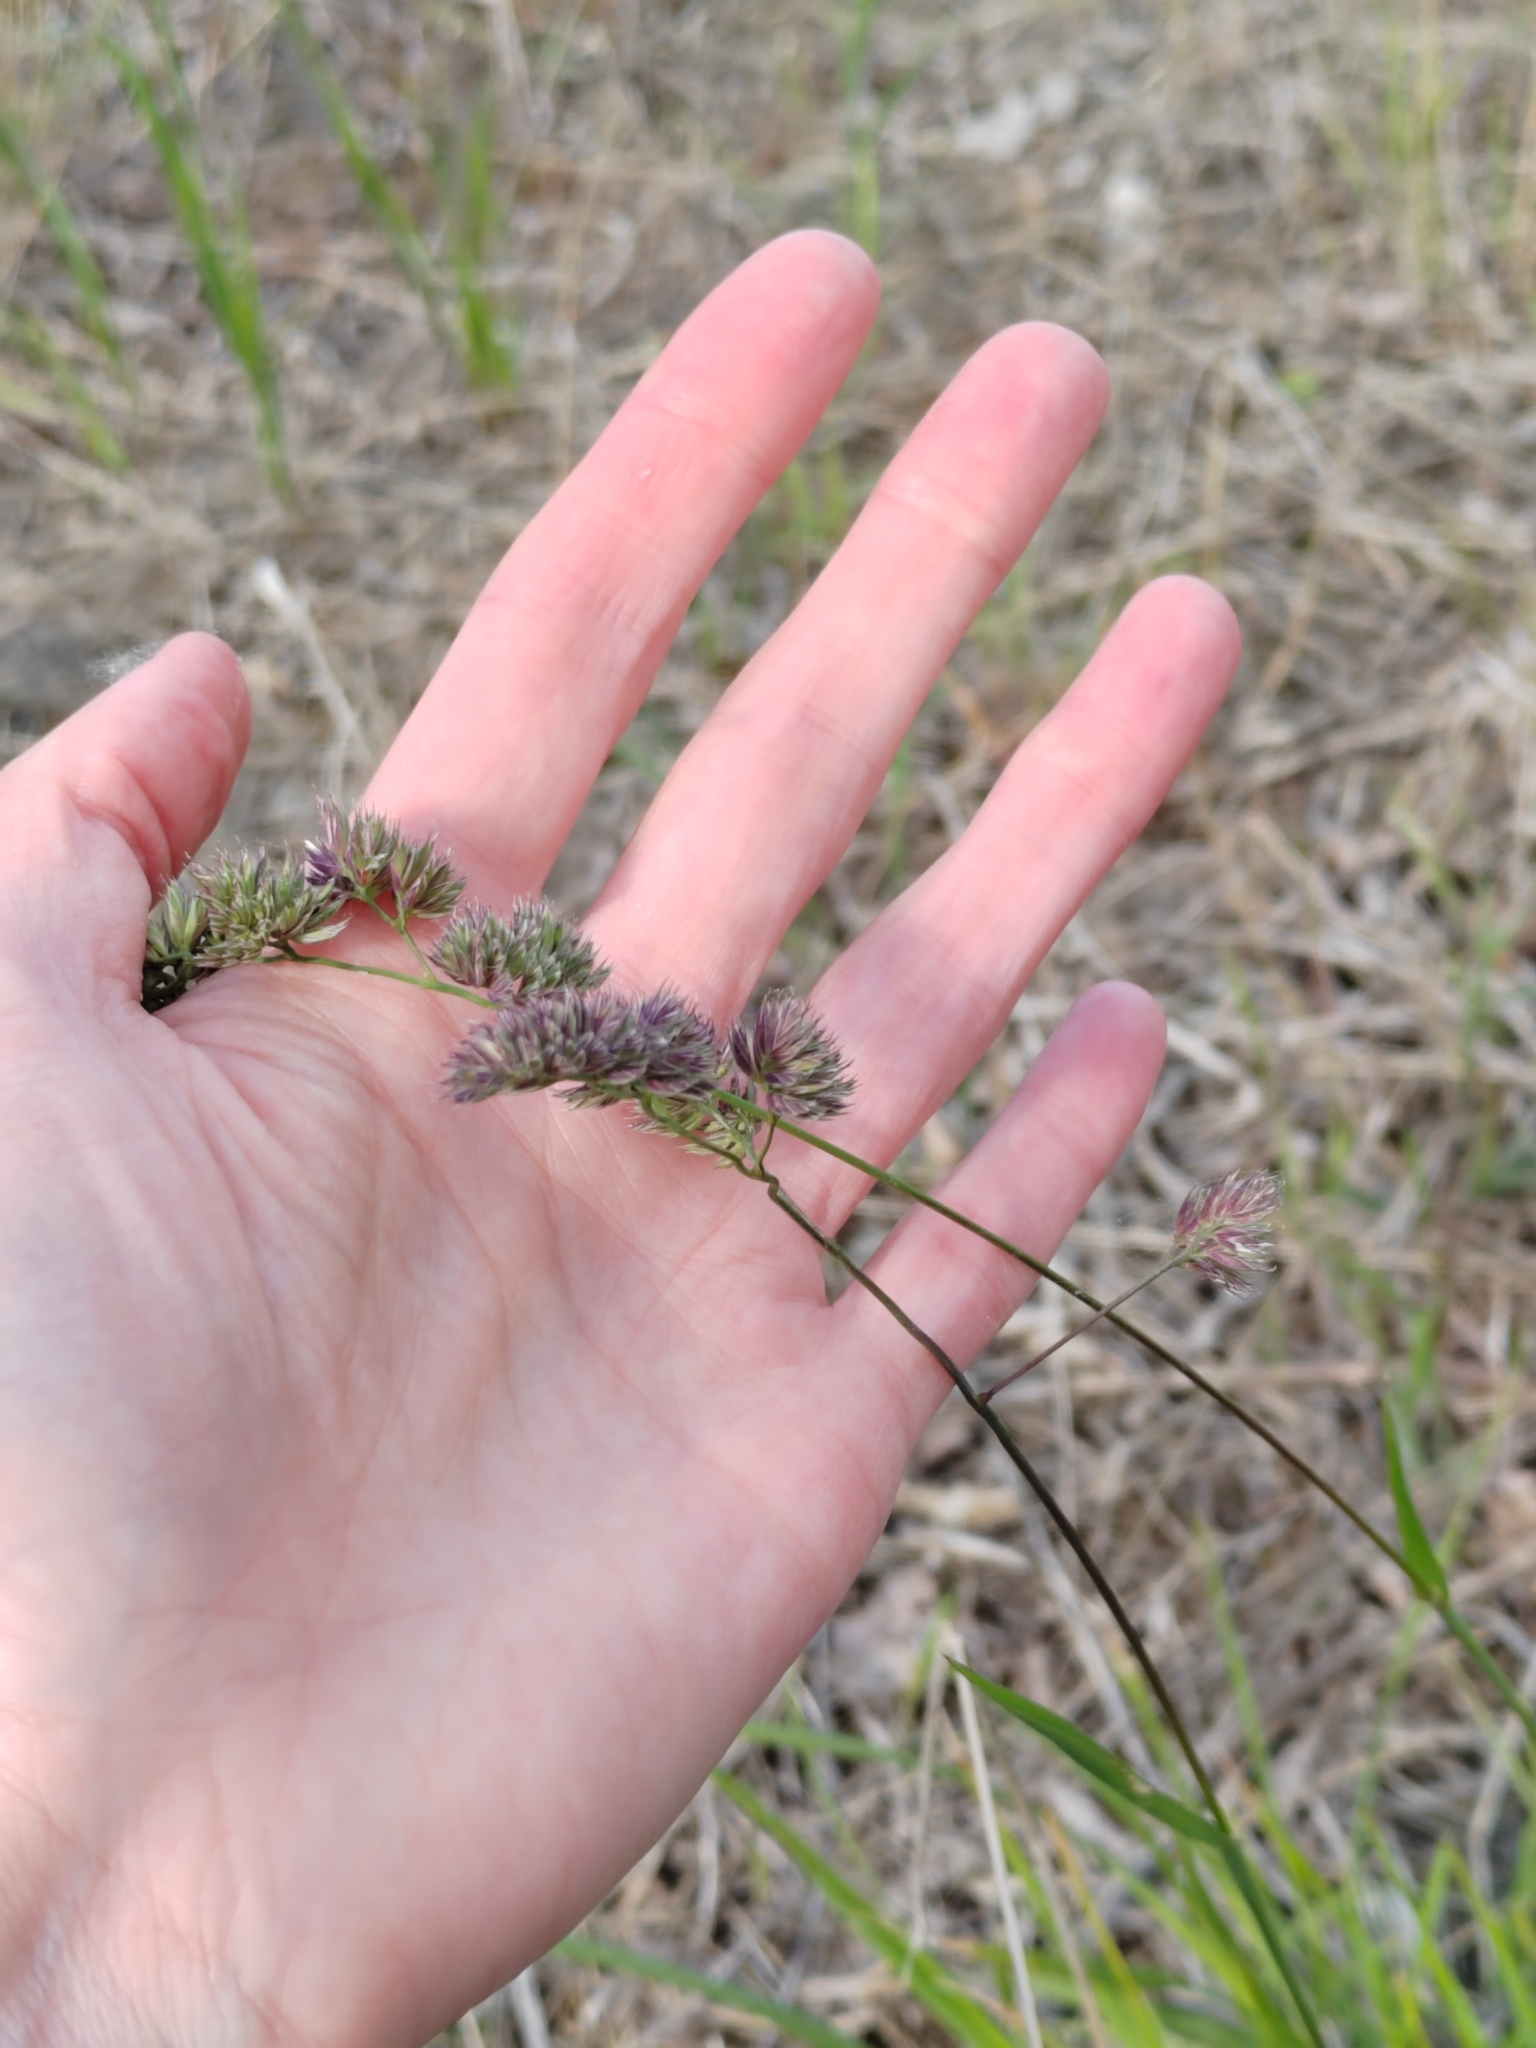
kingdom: Plantae
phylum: Tracheophyta
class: Liliopsida
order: Poales
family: Poaceae
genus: Dactylis
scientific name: Dactylis glomerata
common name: Orchardgrass
